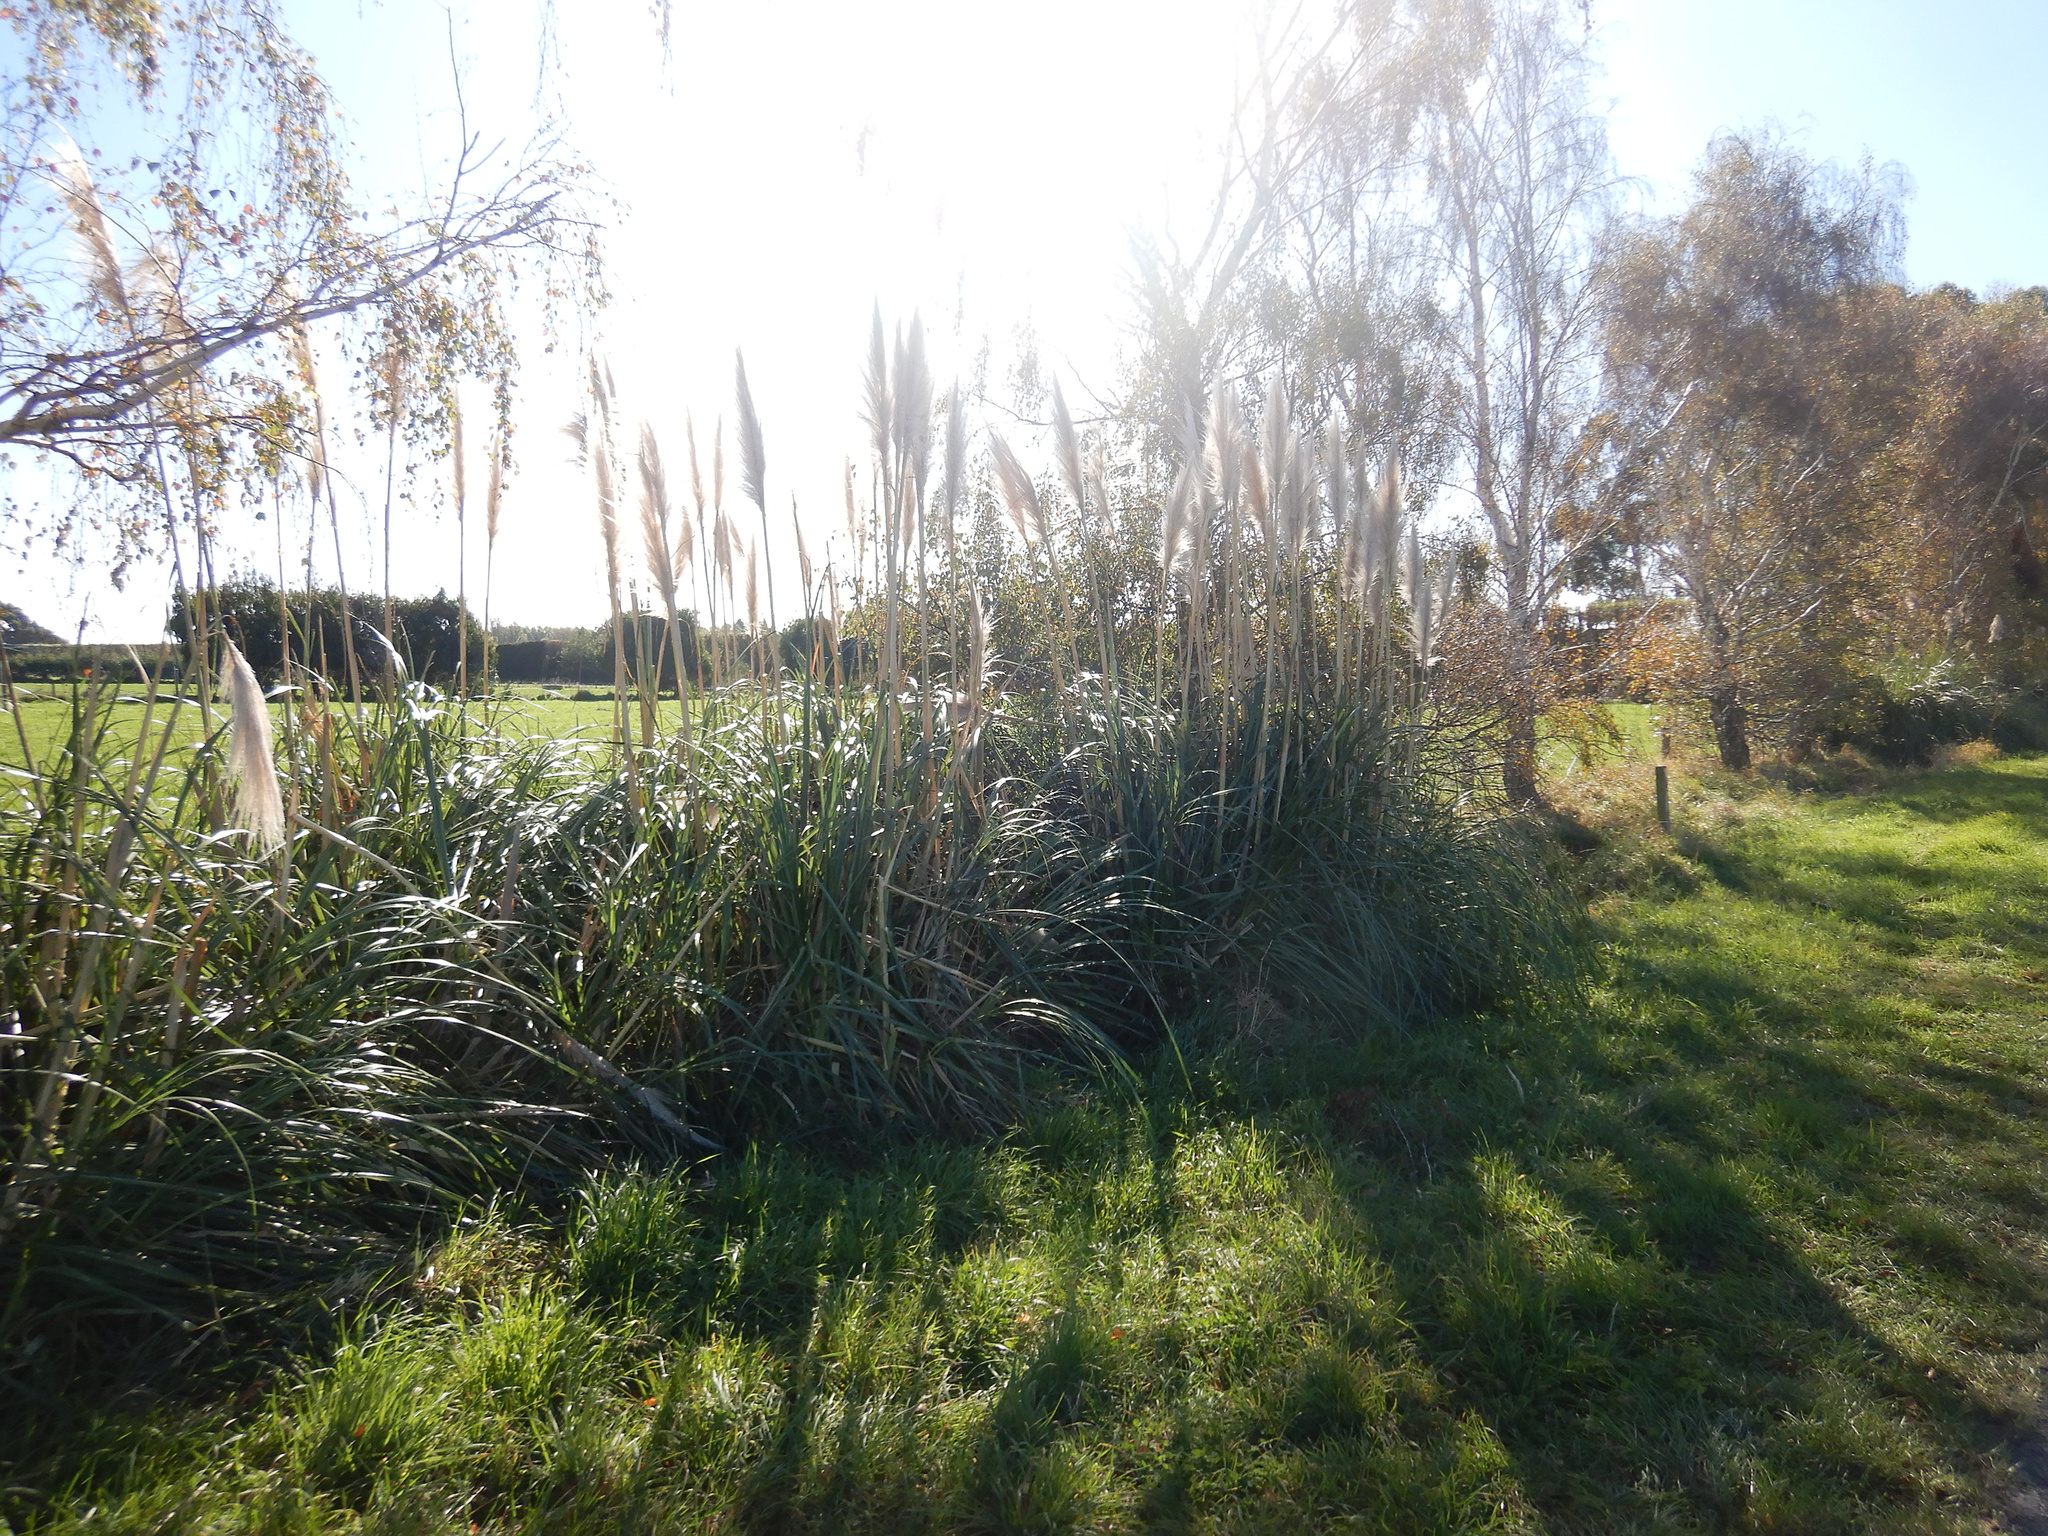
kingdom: Plantae
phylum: Tracheophyta
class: Liliopsida
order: Poales
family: Poaceae
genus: Cortaderia
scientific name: Cortaderia selloana
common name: Uruguayan pampas grass
